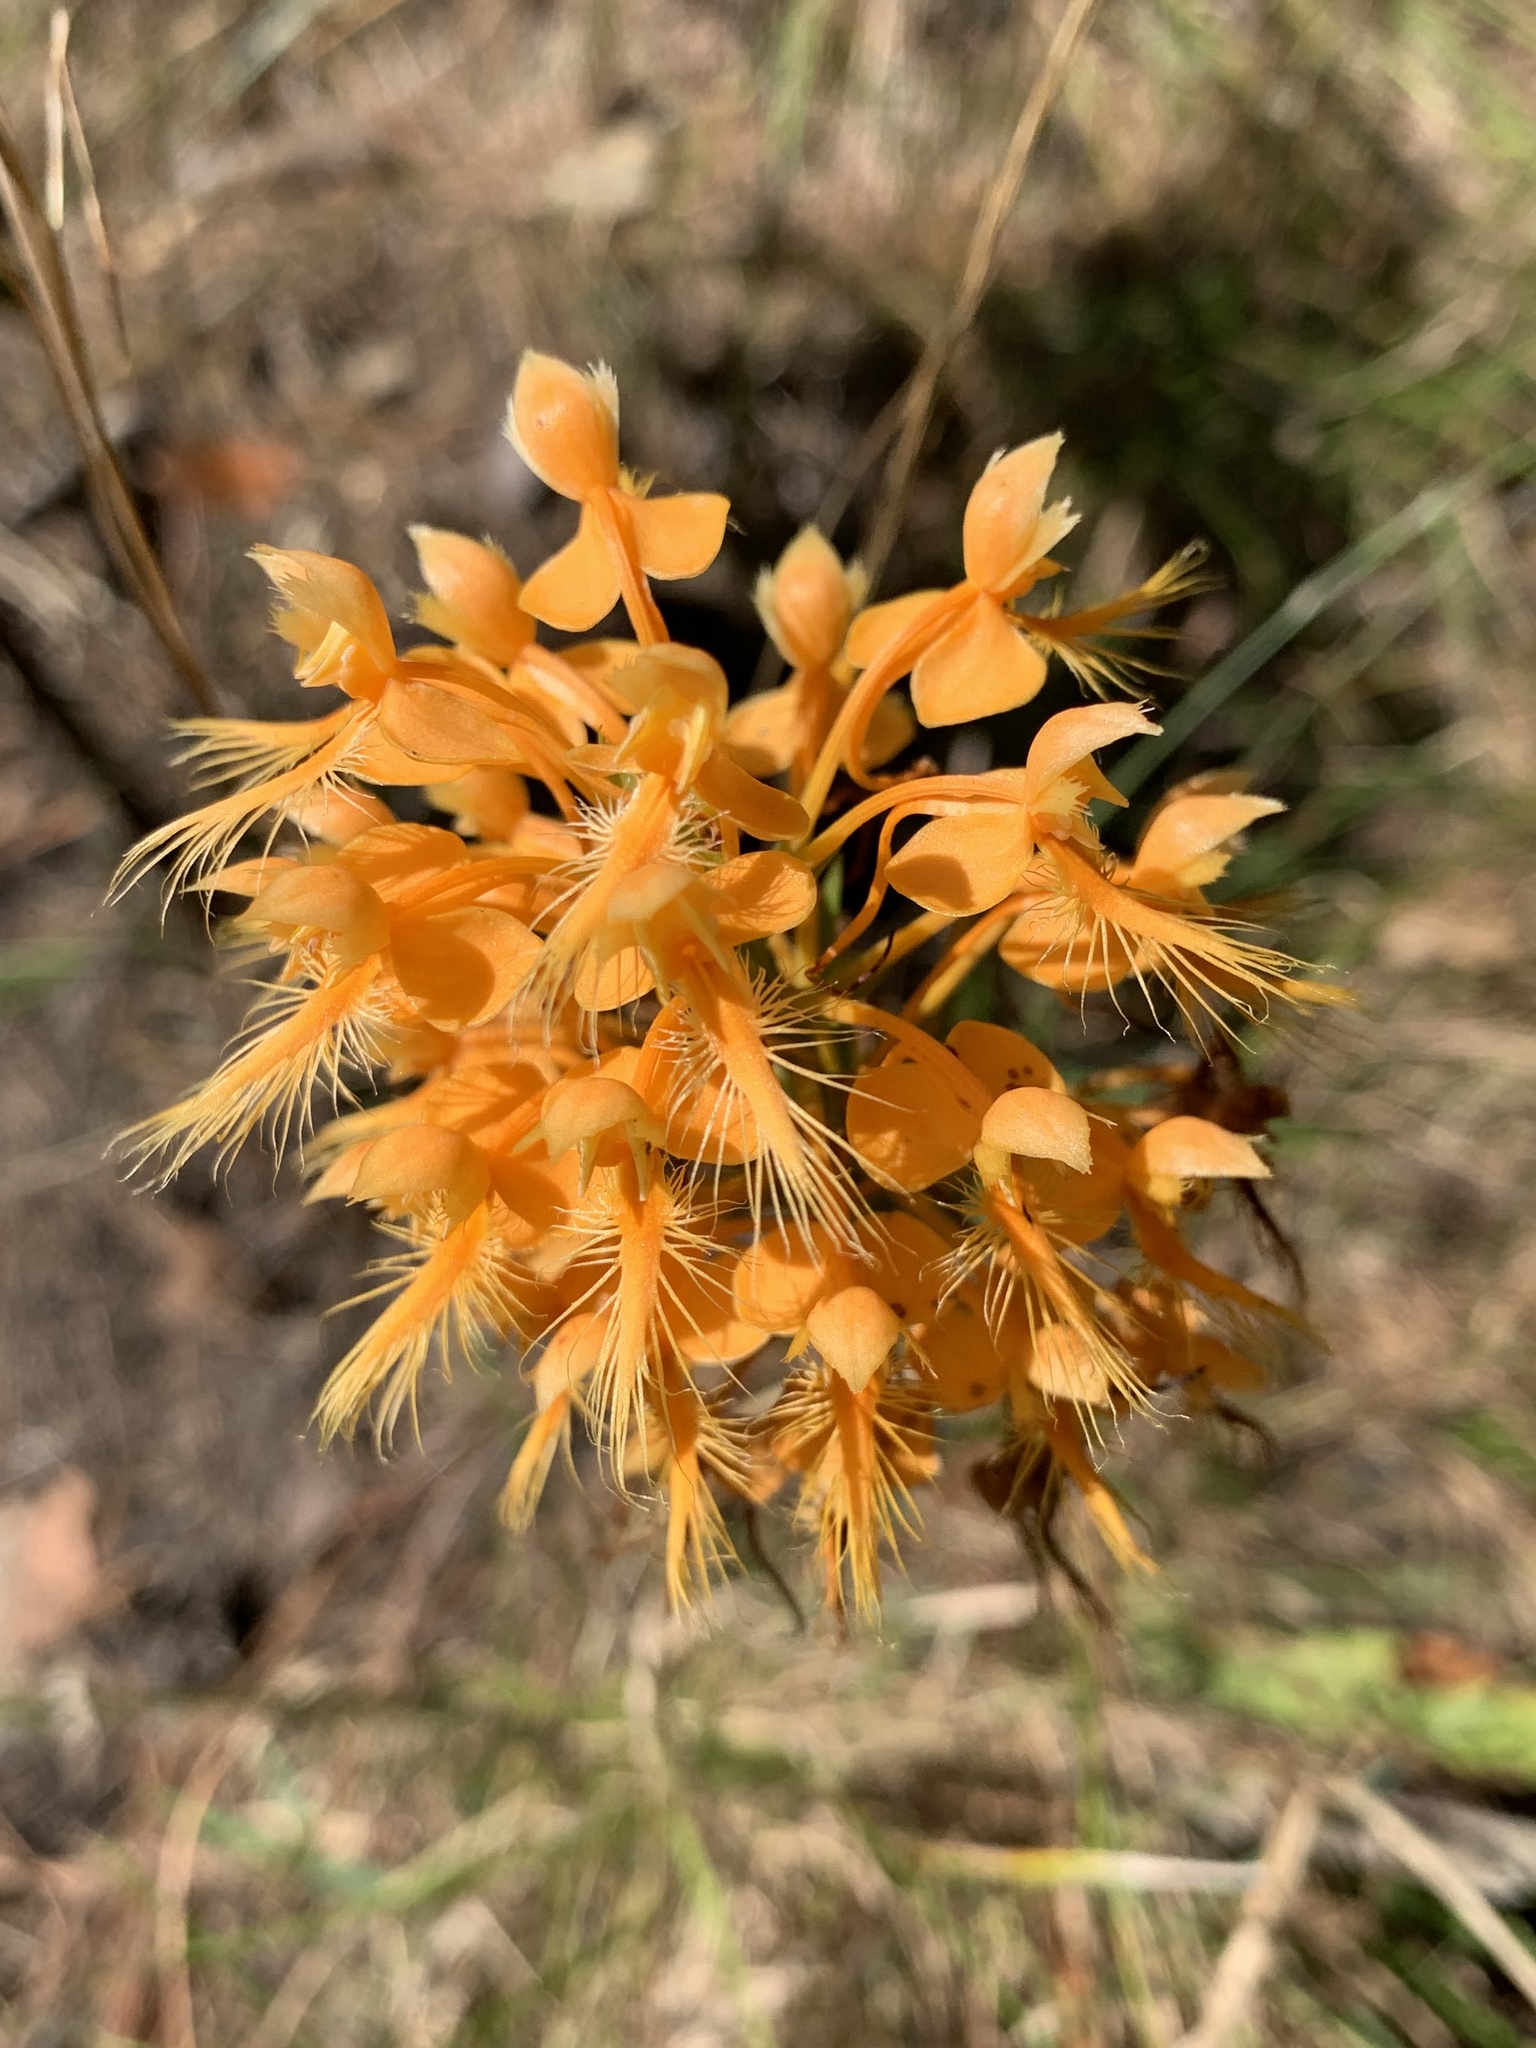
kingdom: Plantae
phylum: Tracheophyta
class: Liliopsida
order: Asparagales
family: Orchidaceae
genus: Platanthera
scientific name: Platanthera ciliaris
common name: Yellow fringed orchid
